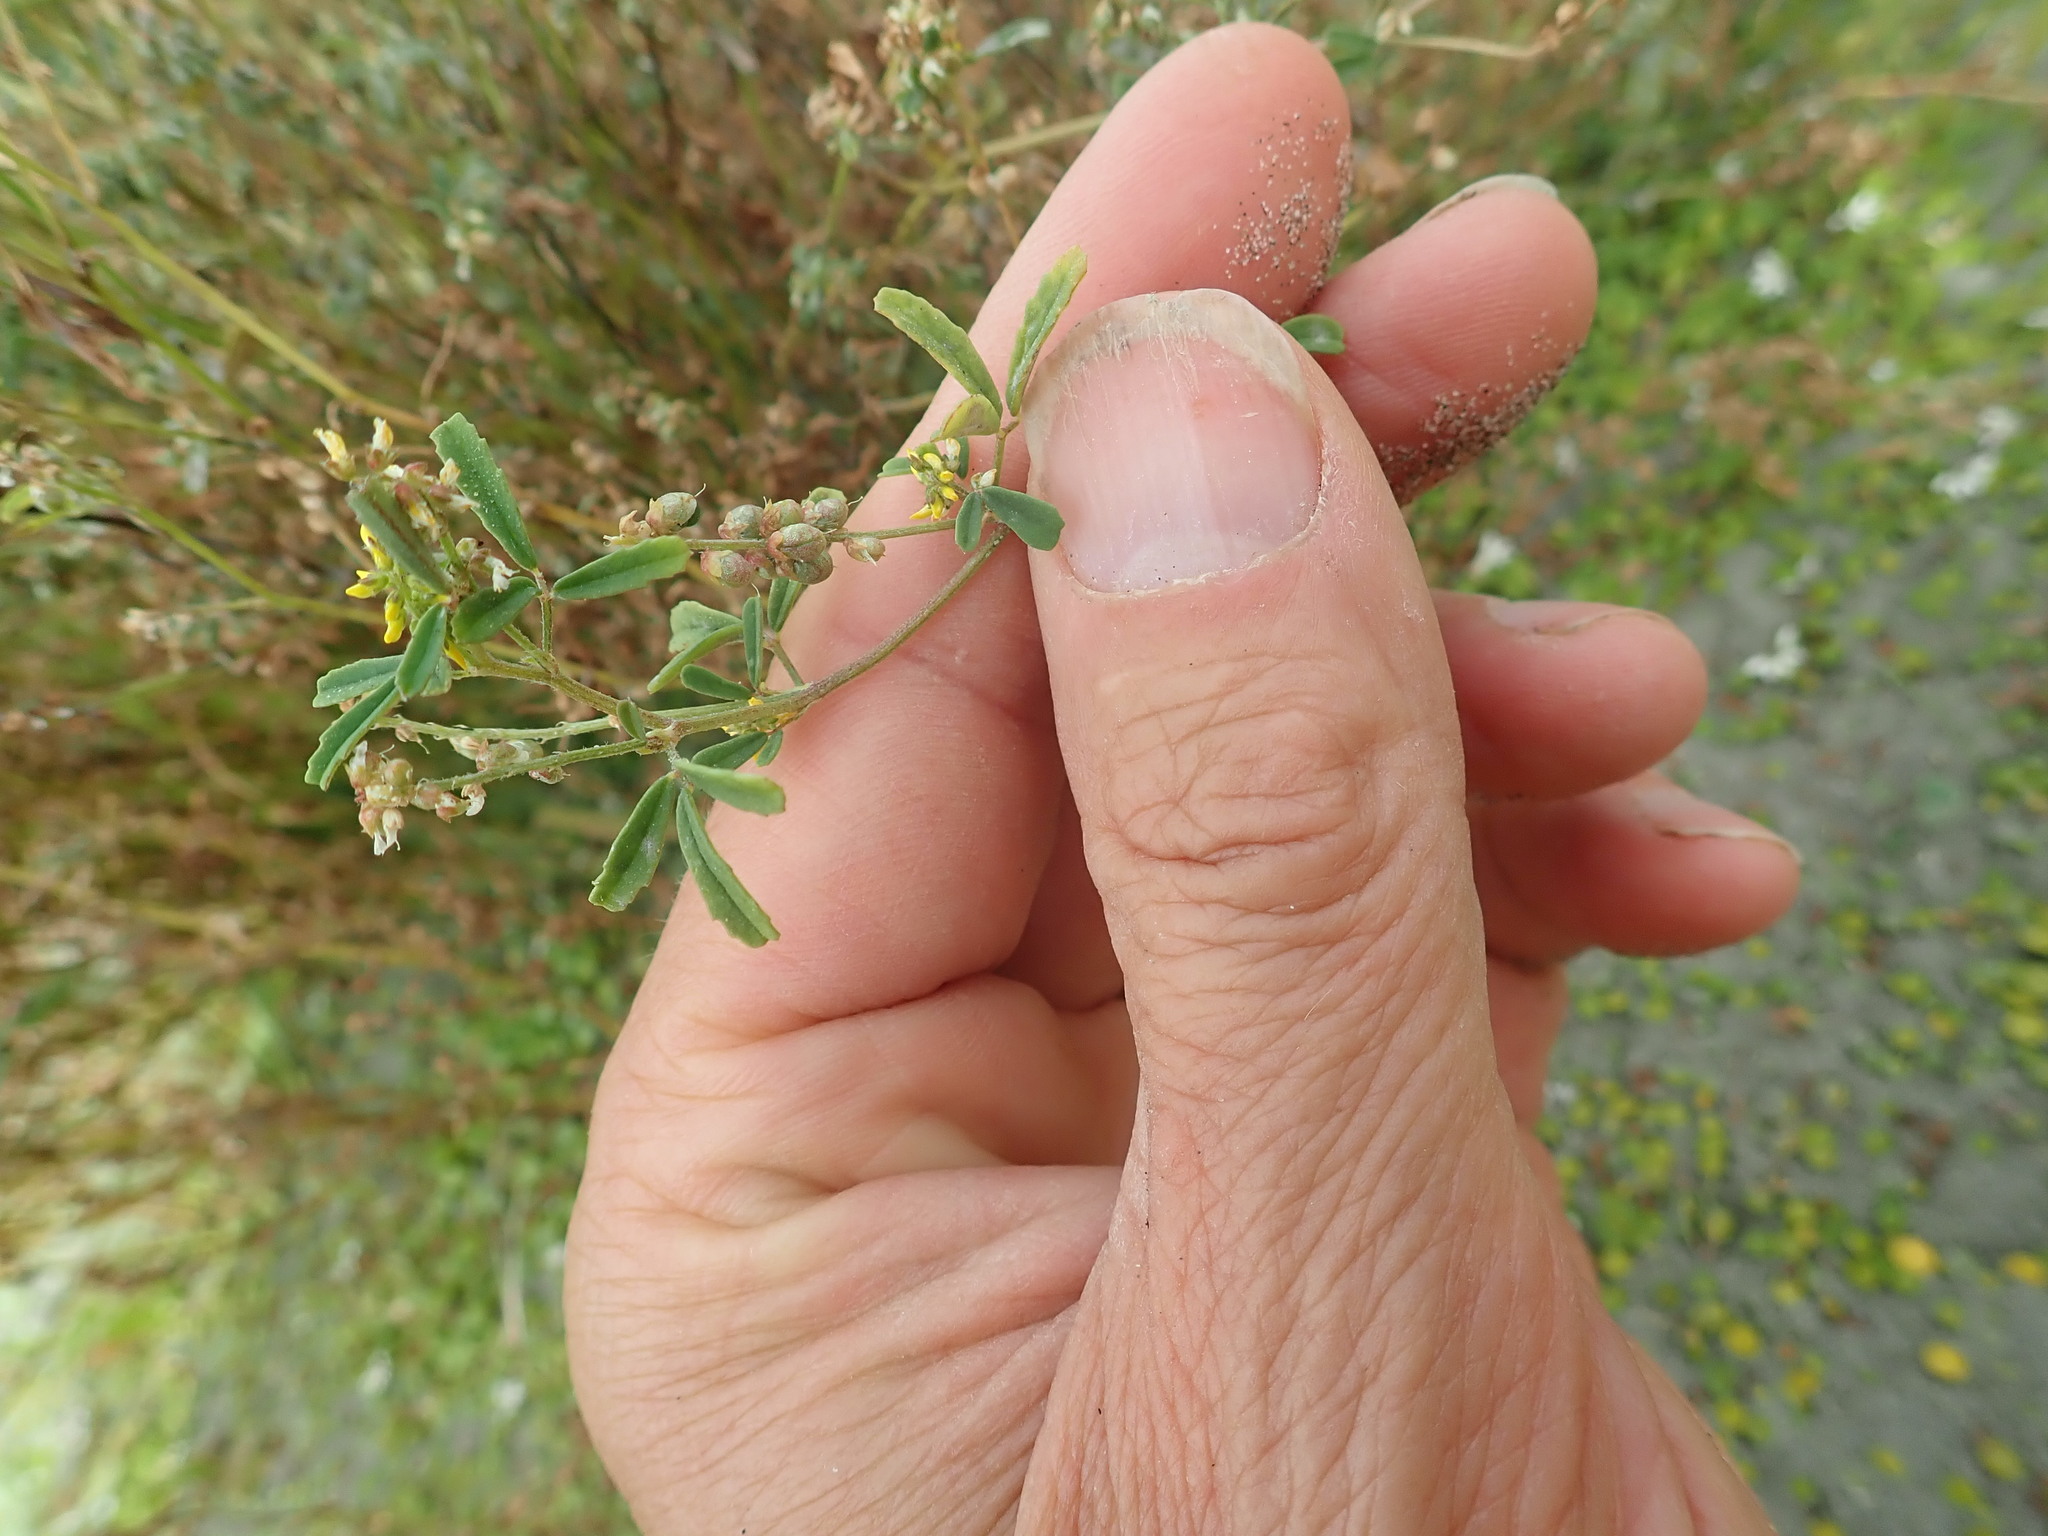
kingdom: Plantae
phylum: Tracheophyta
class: Magnoliopsida
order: Fabales
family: Fabaceae
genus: Melilotus
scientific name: Melilotus indicus
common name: Small melilot
